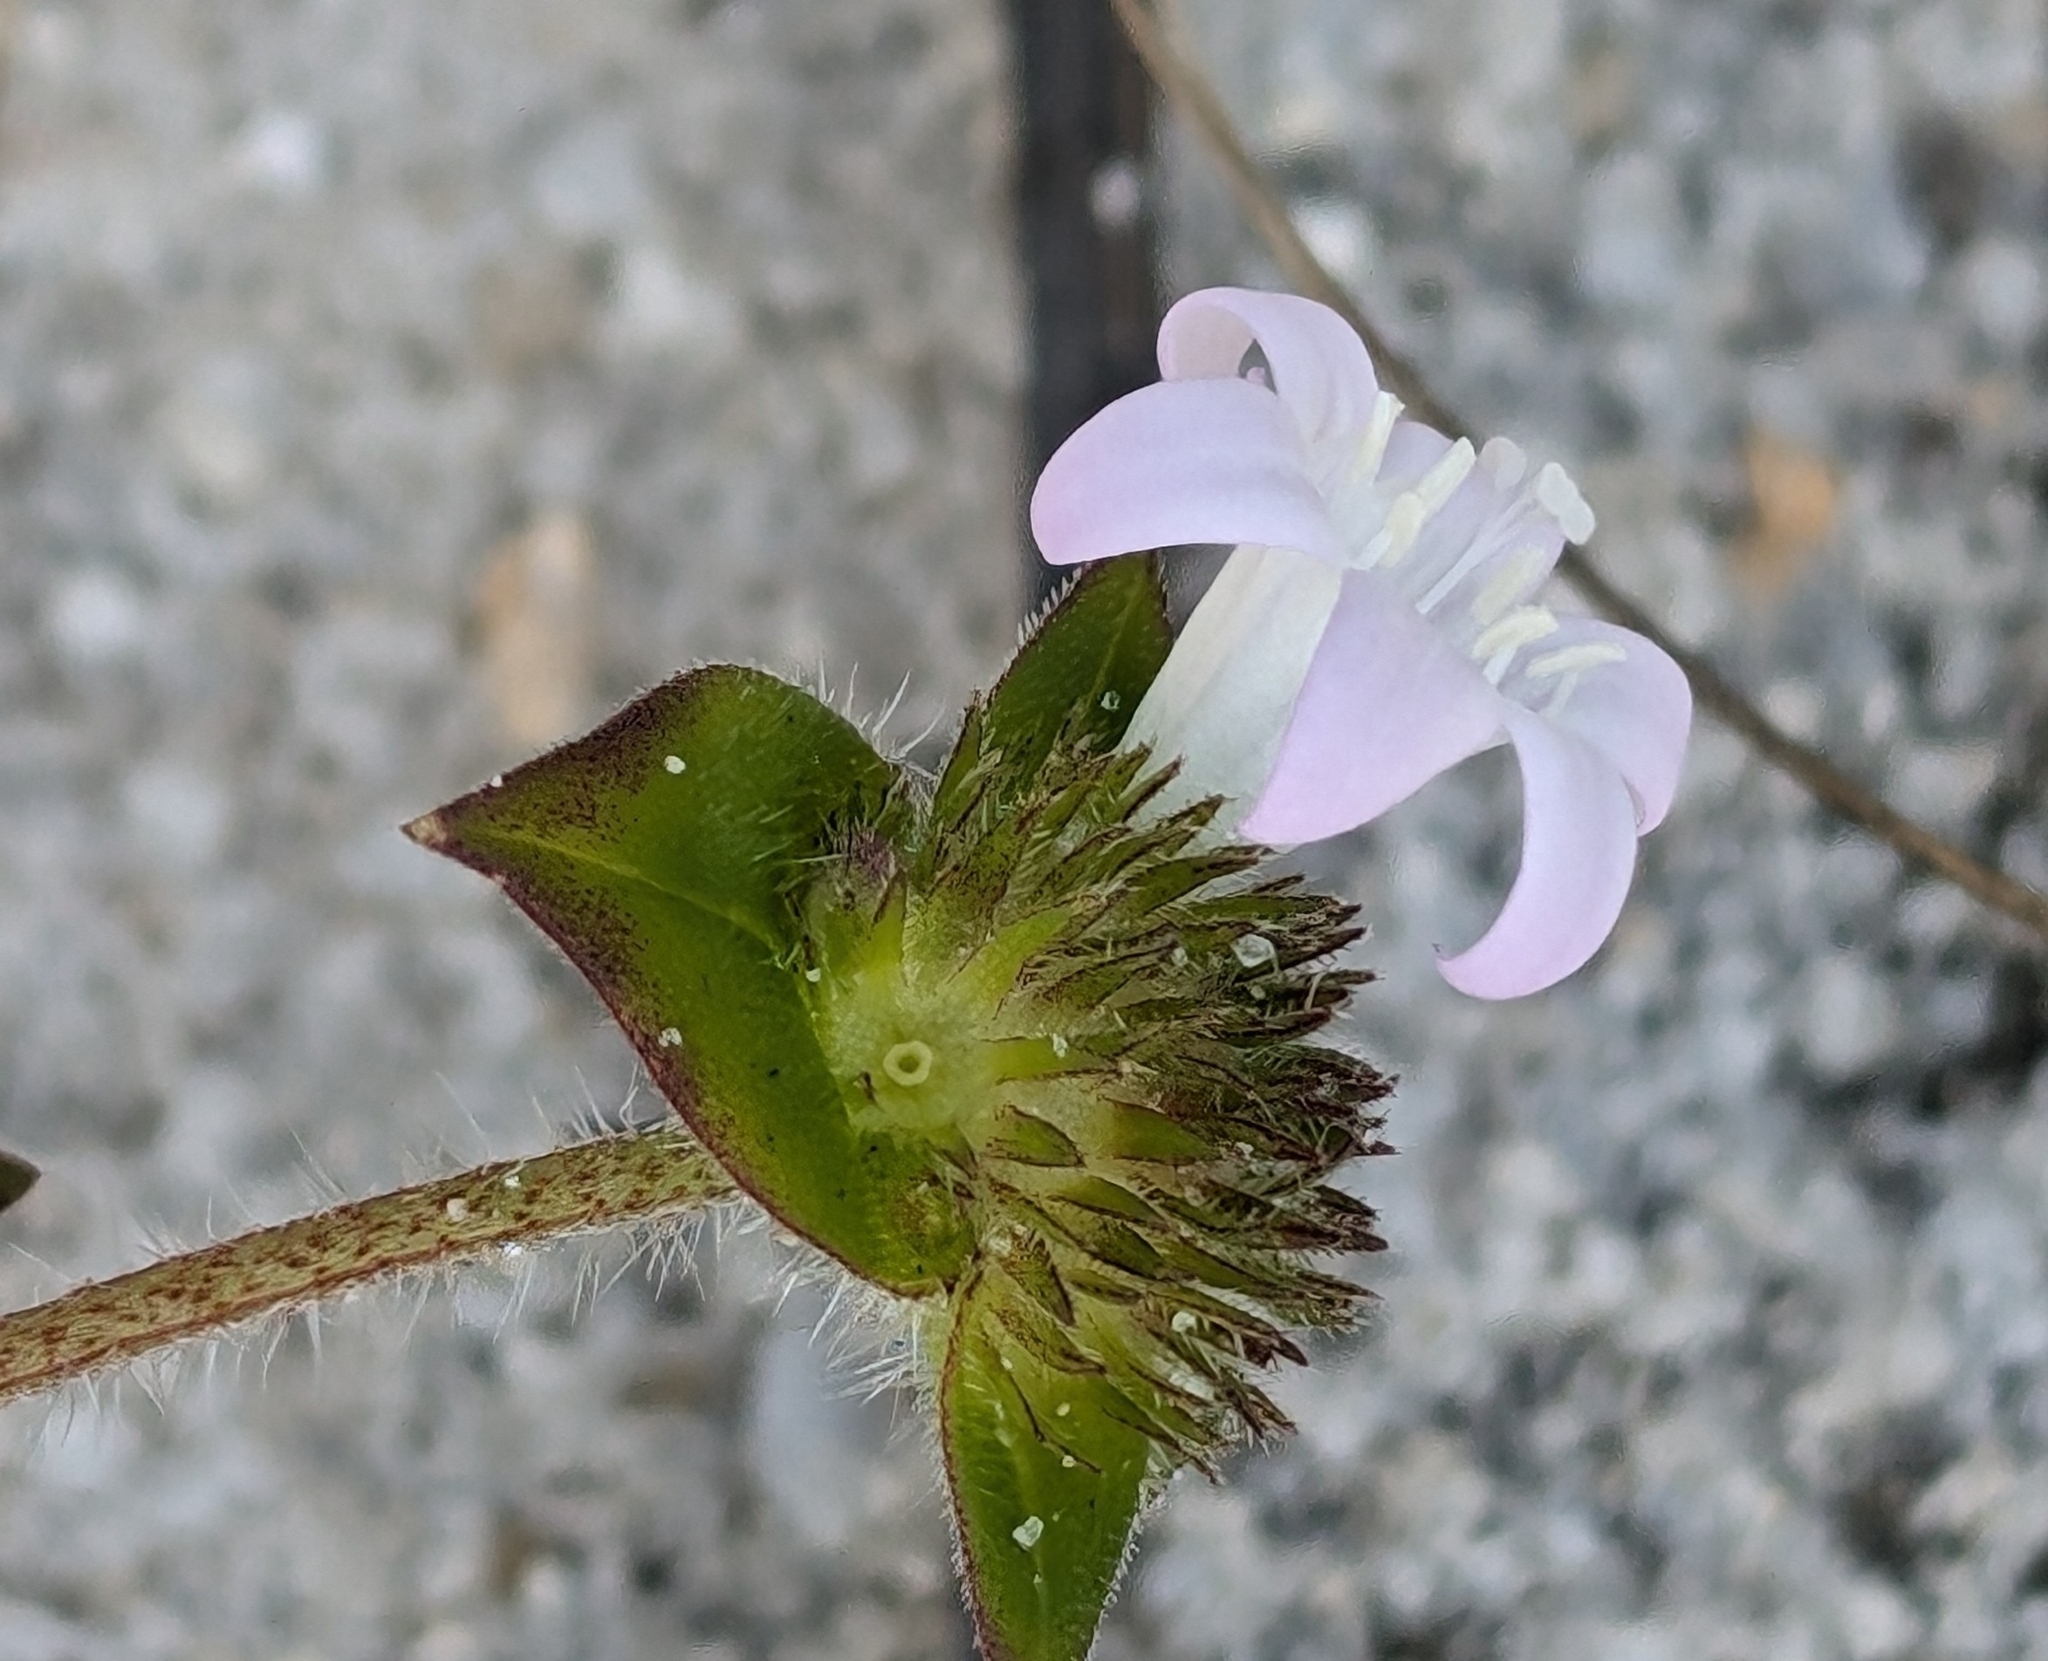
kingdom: Plantae
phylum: Tracheophyta
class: Magnoliopsida
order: Gentianales
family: Rubiaceae
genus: Richardia
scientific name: Richardia grandiflora
